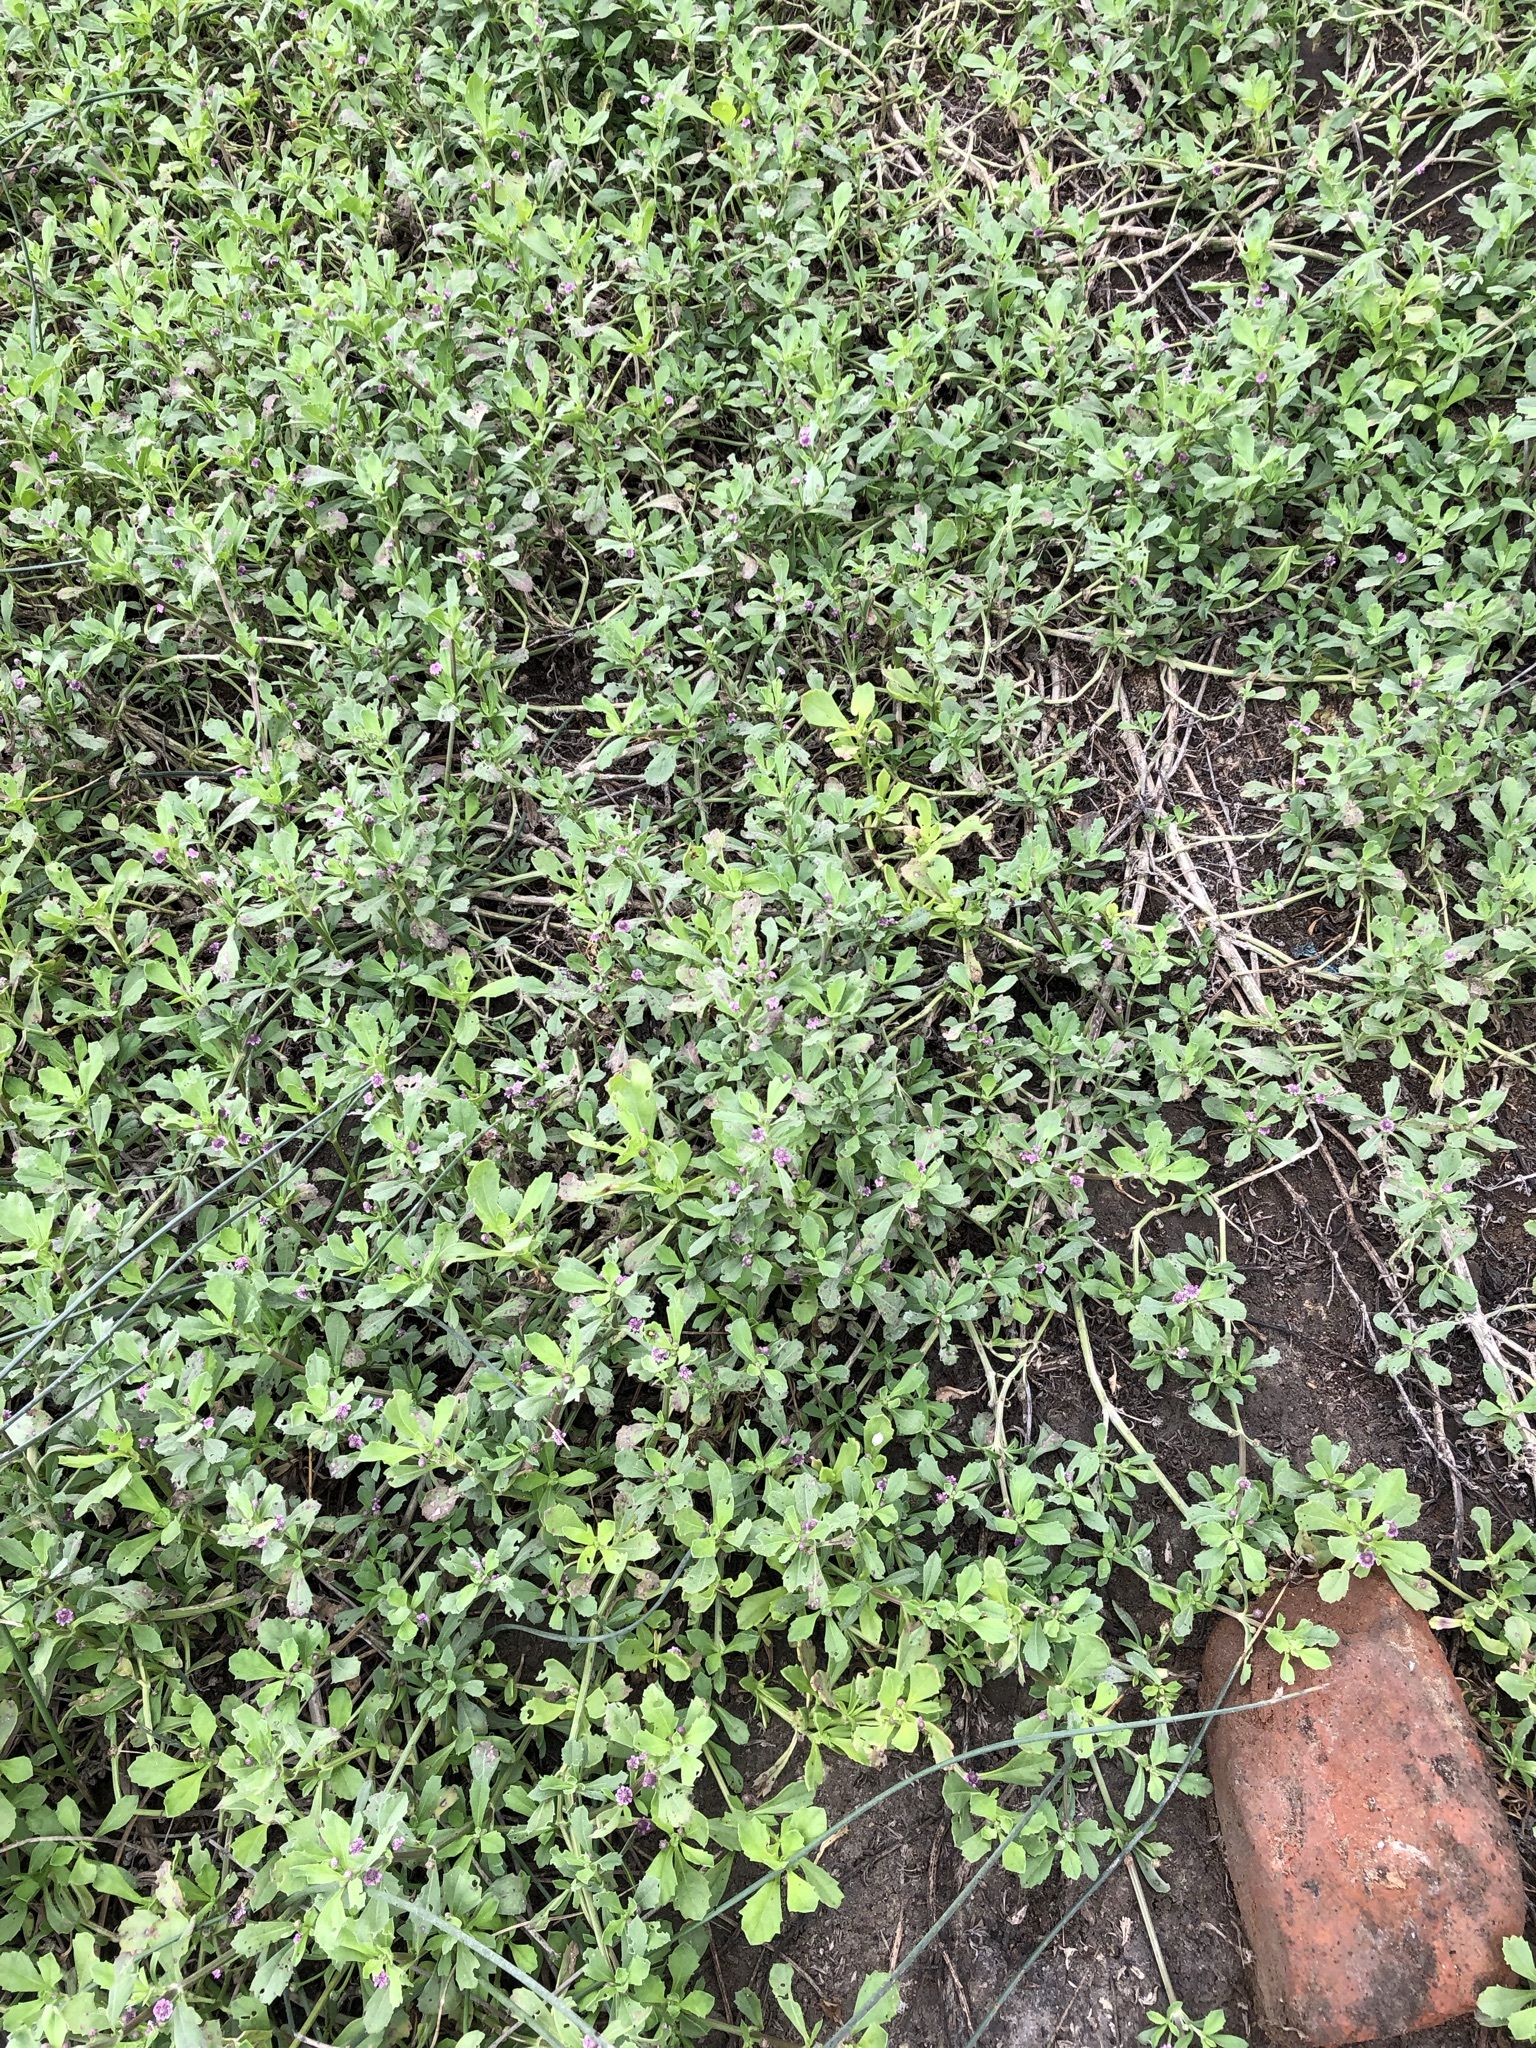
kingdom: Plantae
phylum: Tracheophyta
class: Magnoliopsida
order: Lamiales
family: Verbenaceae
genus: Phyla
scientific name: Phyla nodiflora
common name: Frogfruit
